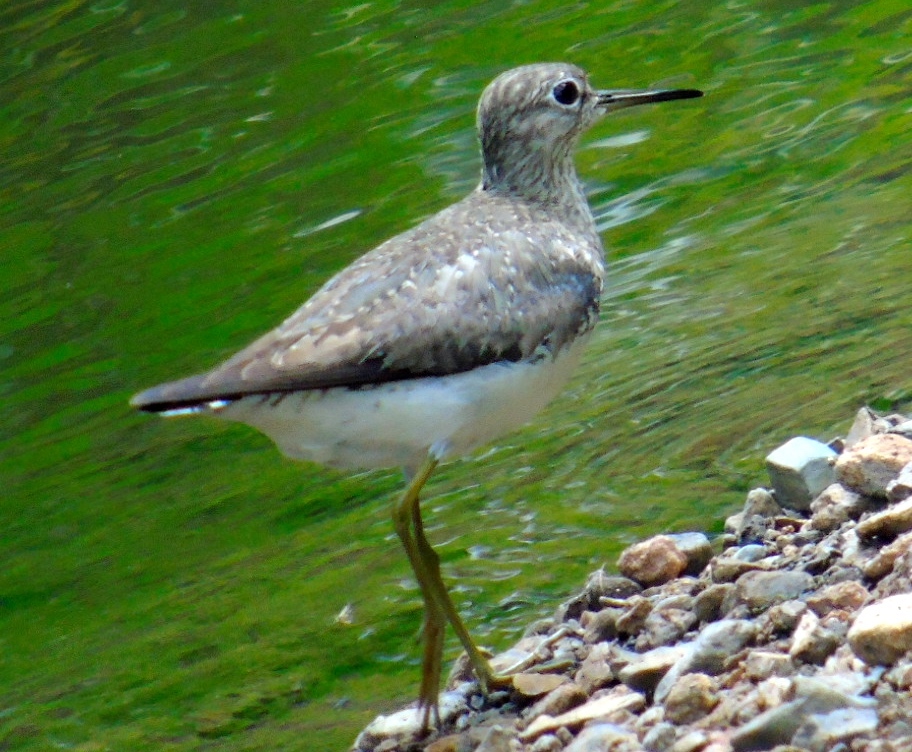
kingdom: Animalia
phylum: Chordata
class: Aves
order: Charadriiformes
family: Scolopacidae
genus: Tringa
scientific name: Tringa solitaria
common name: Solitary sandpiper
